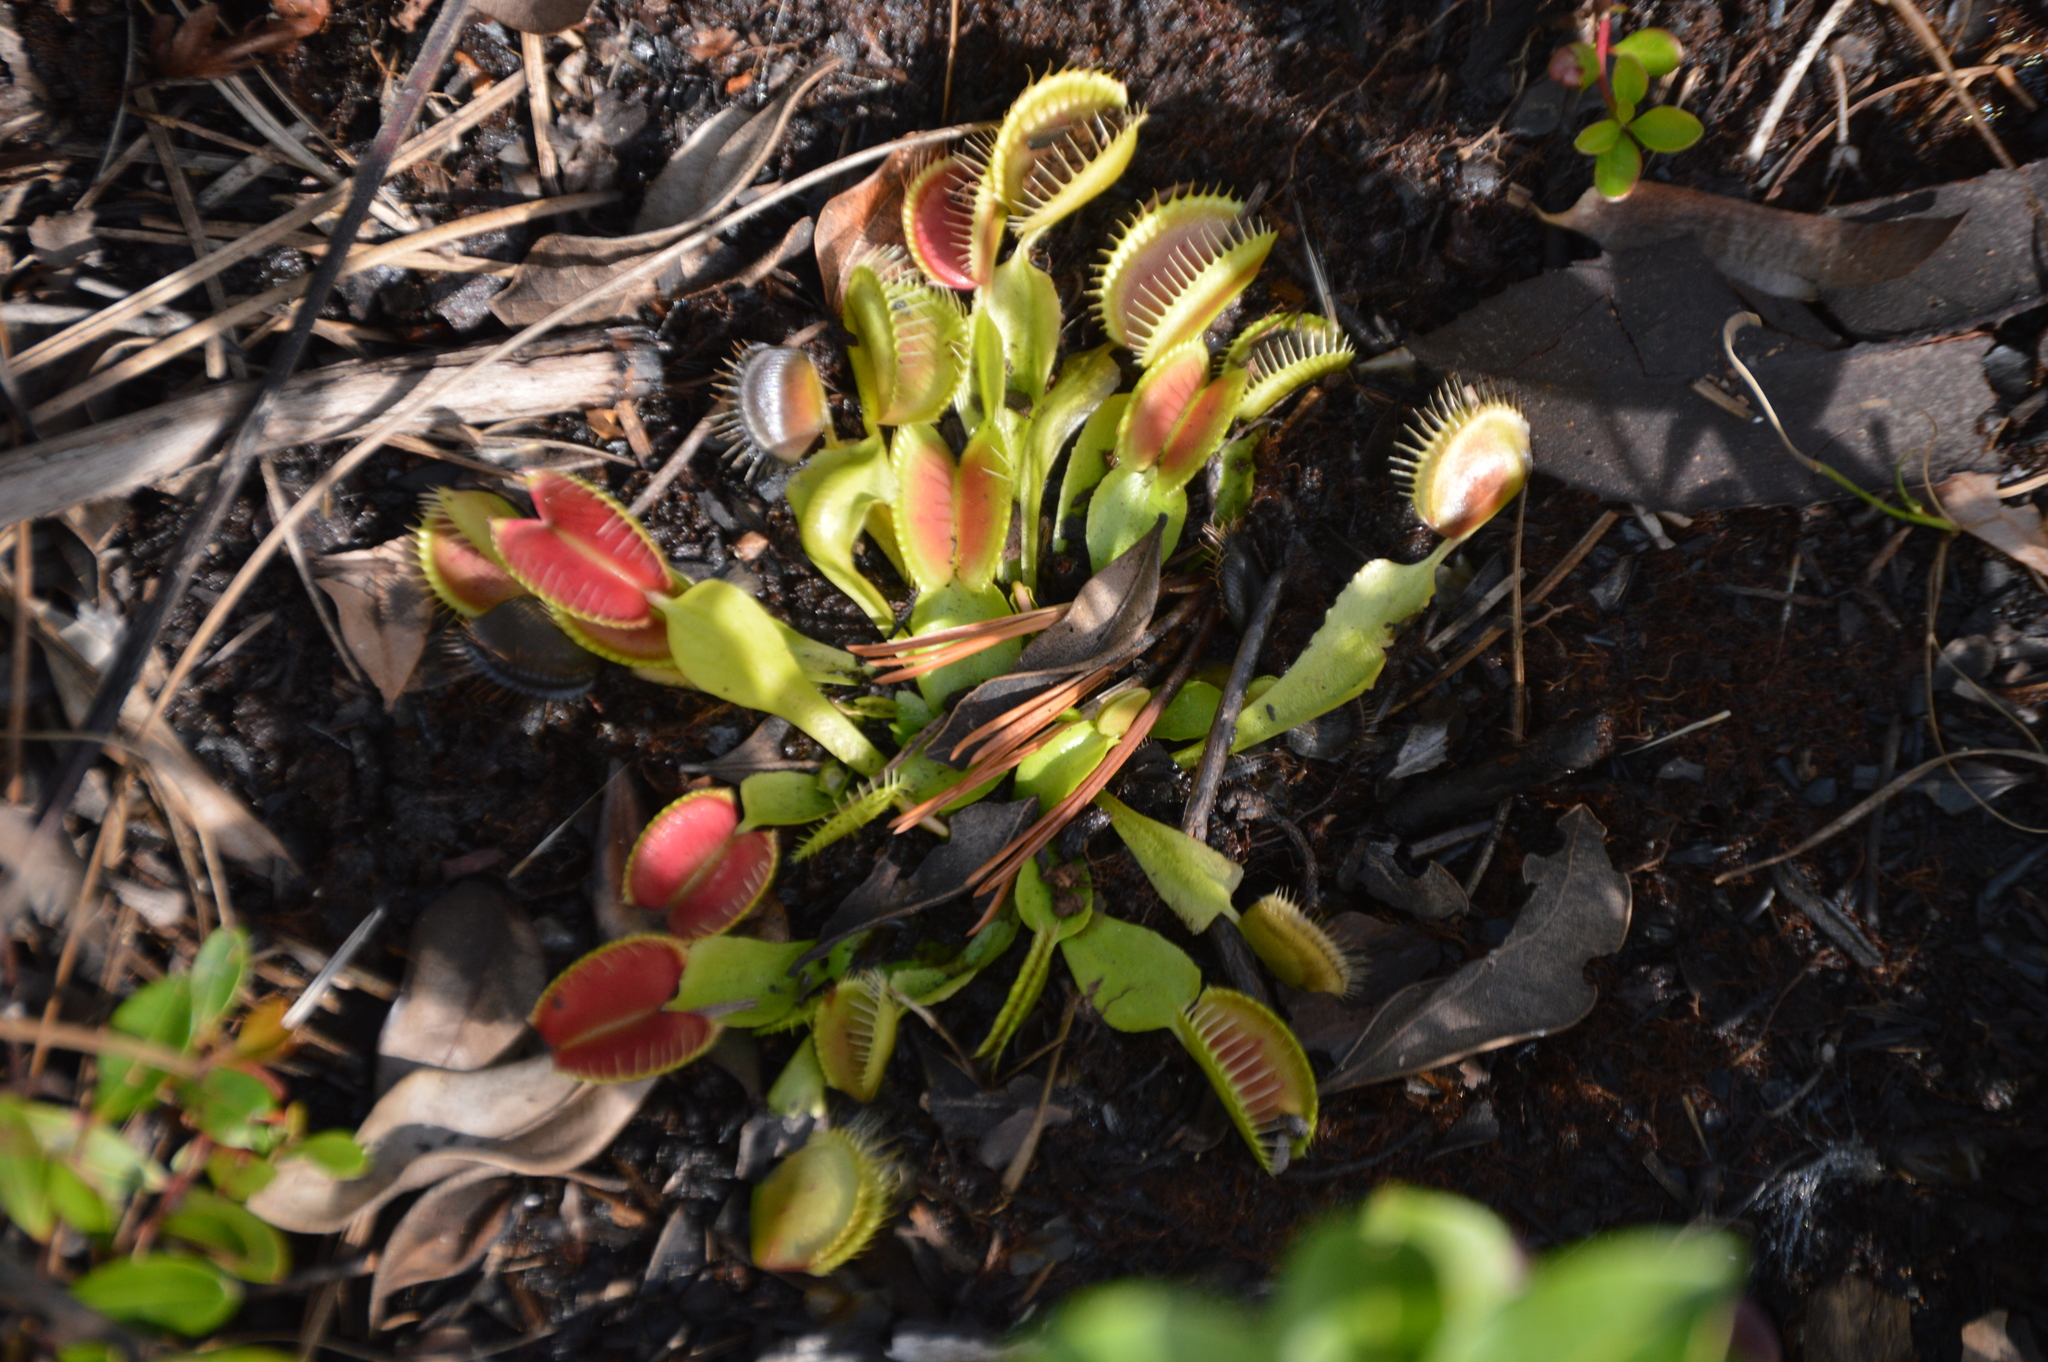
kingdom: Plantae
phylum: Tracheophyta
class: Magnoliopsida
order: Caryophyllales
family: Droseraceae
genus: Dionaea
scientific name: Dionaea muscipula
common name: Venus flytrap
